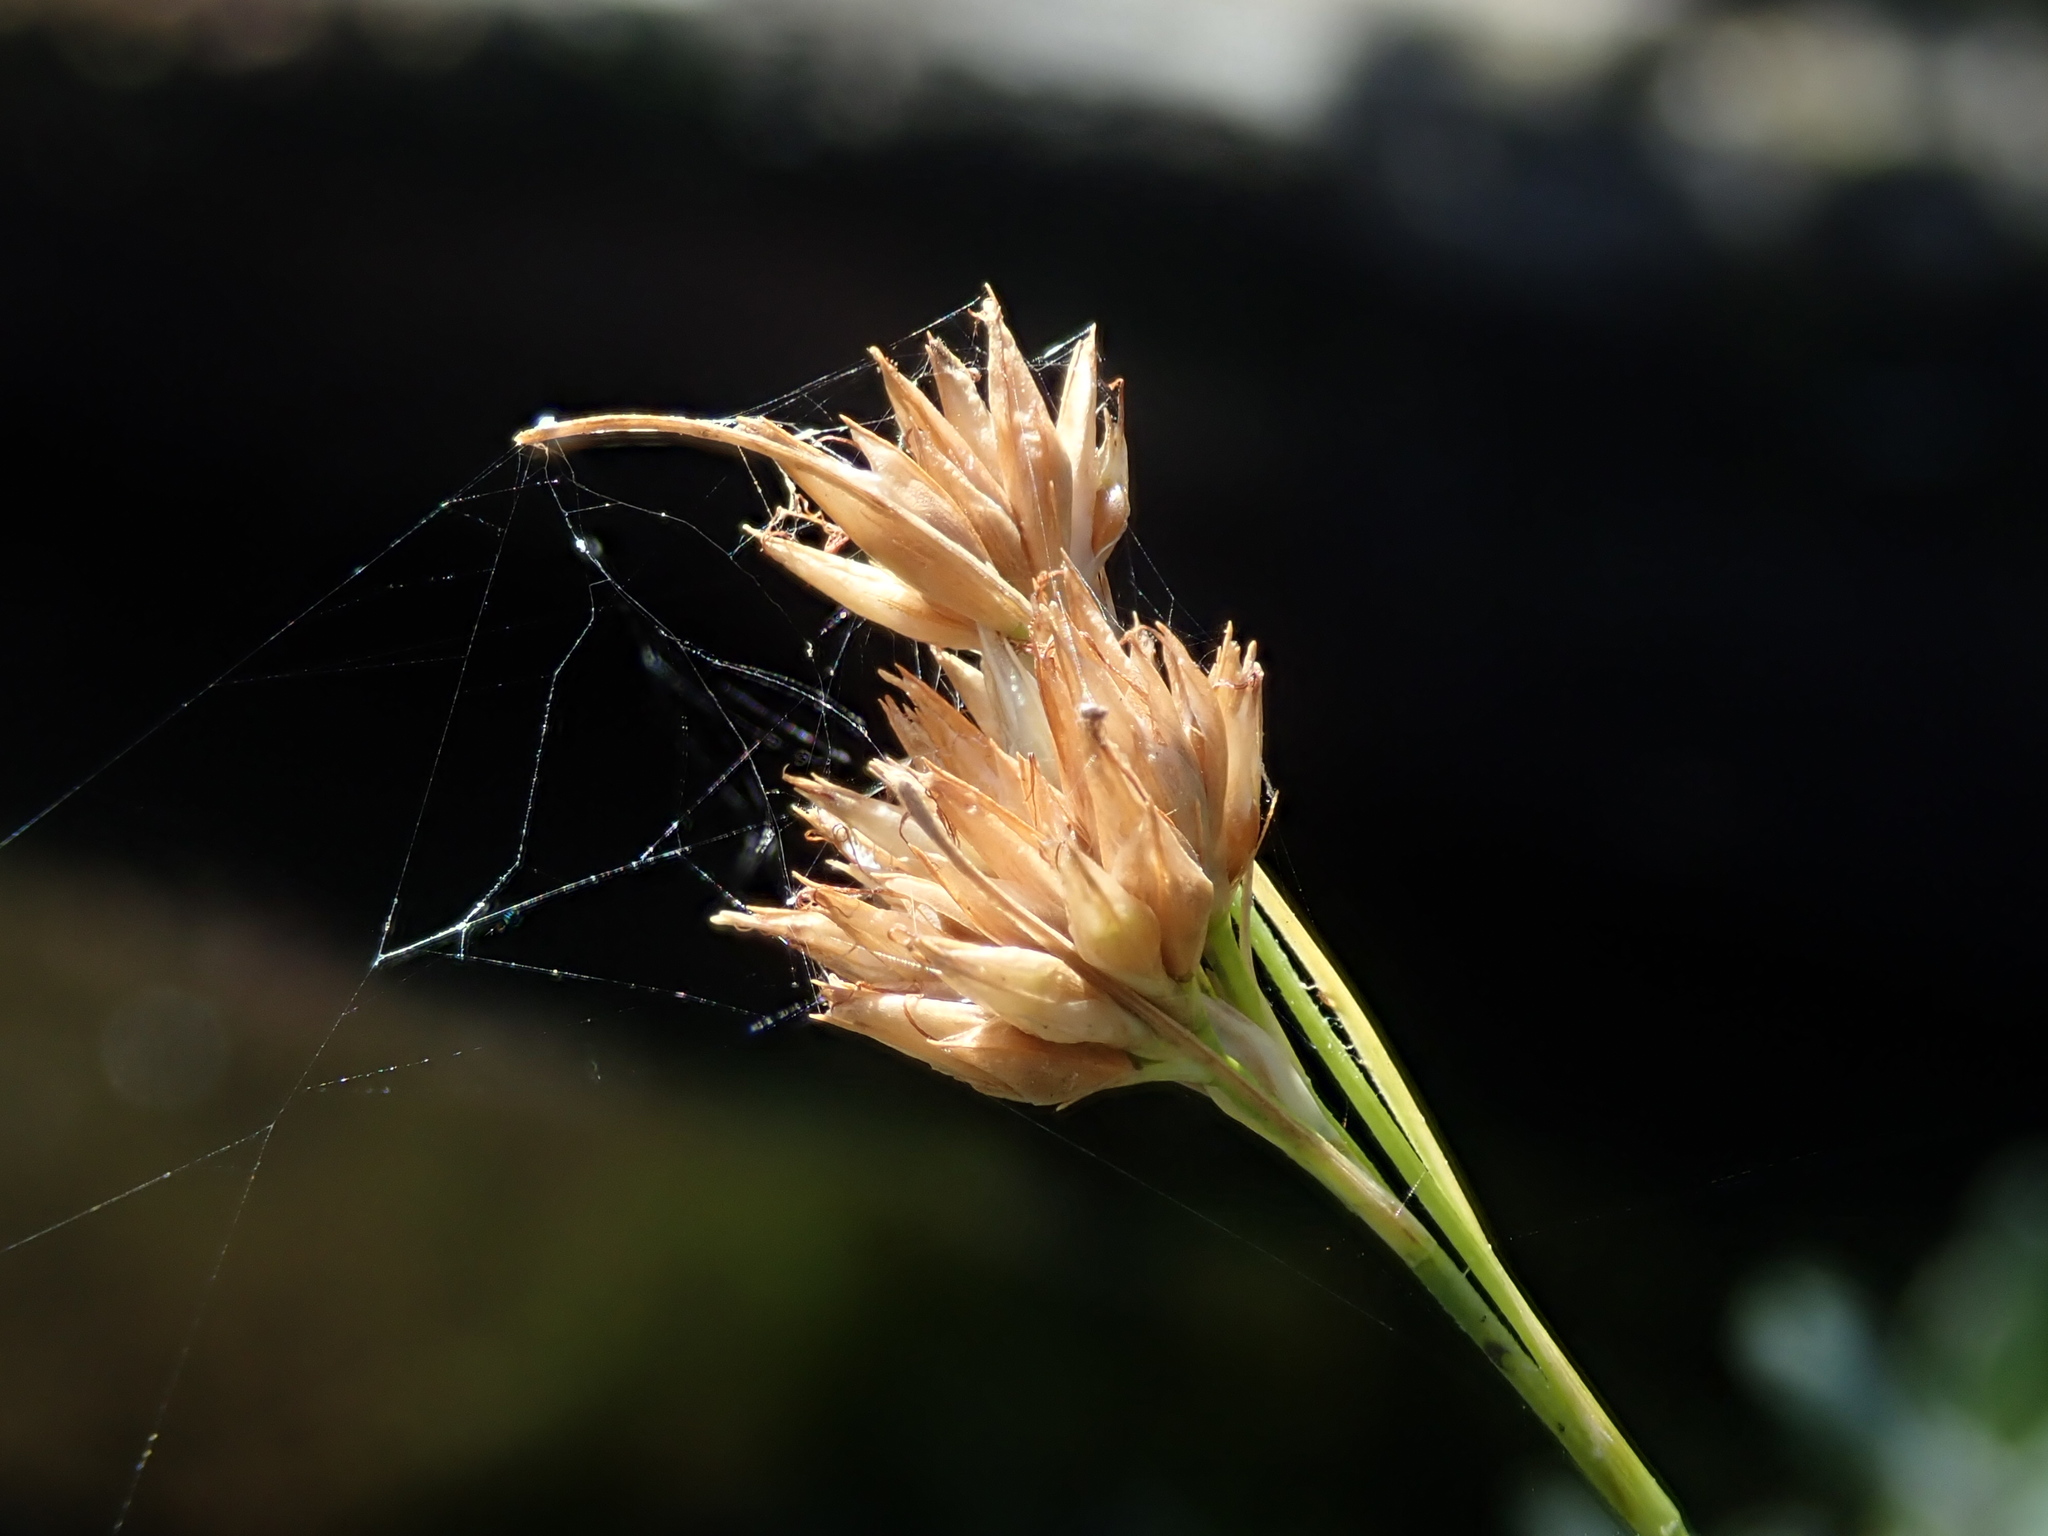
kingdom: Plantae
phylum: Tracheophyta
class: Liliopsida
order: Poales
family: Cyperaceae
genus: Rhynchospora
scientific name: Rhynchospora alba
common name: White beak-sedge
